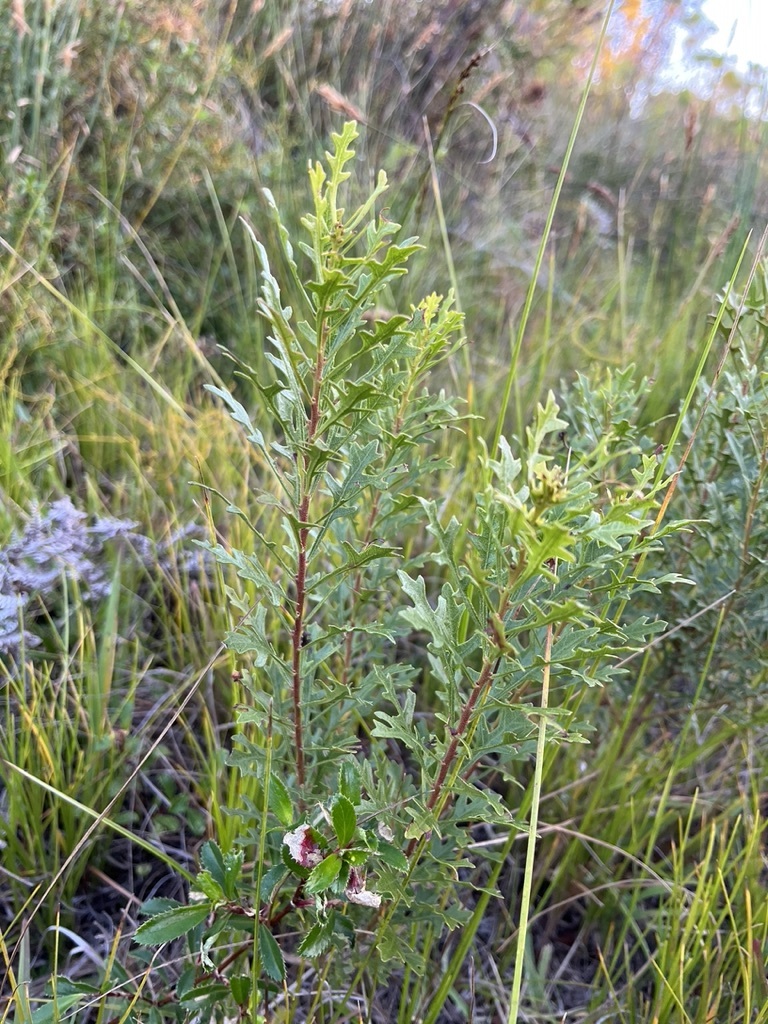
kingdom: Plantae
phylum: Tracheophyta
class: Magnoliopsida
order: Fagales
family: Myricaceae
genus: Morella
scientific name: Morella quercifolia
